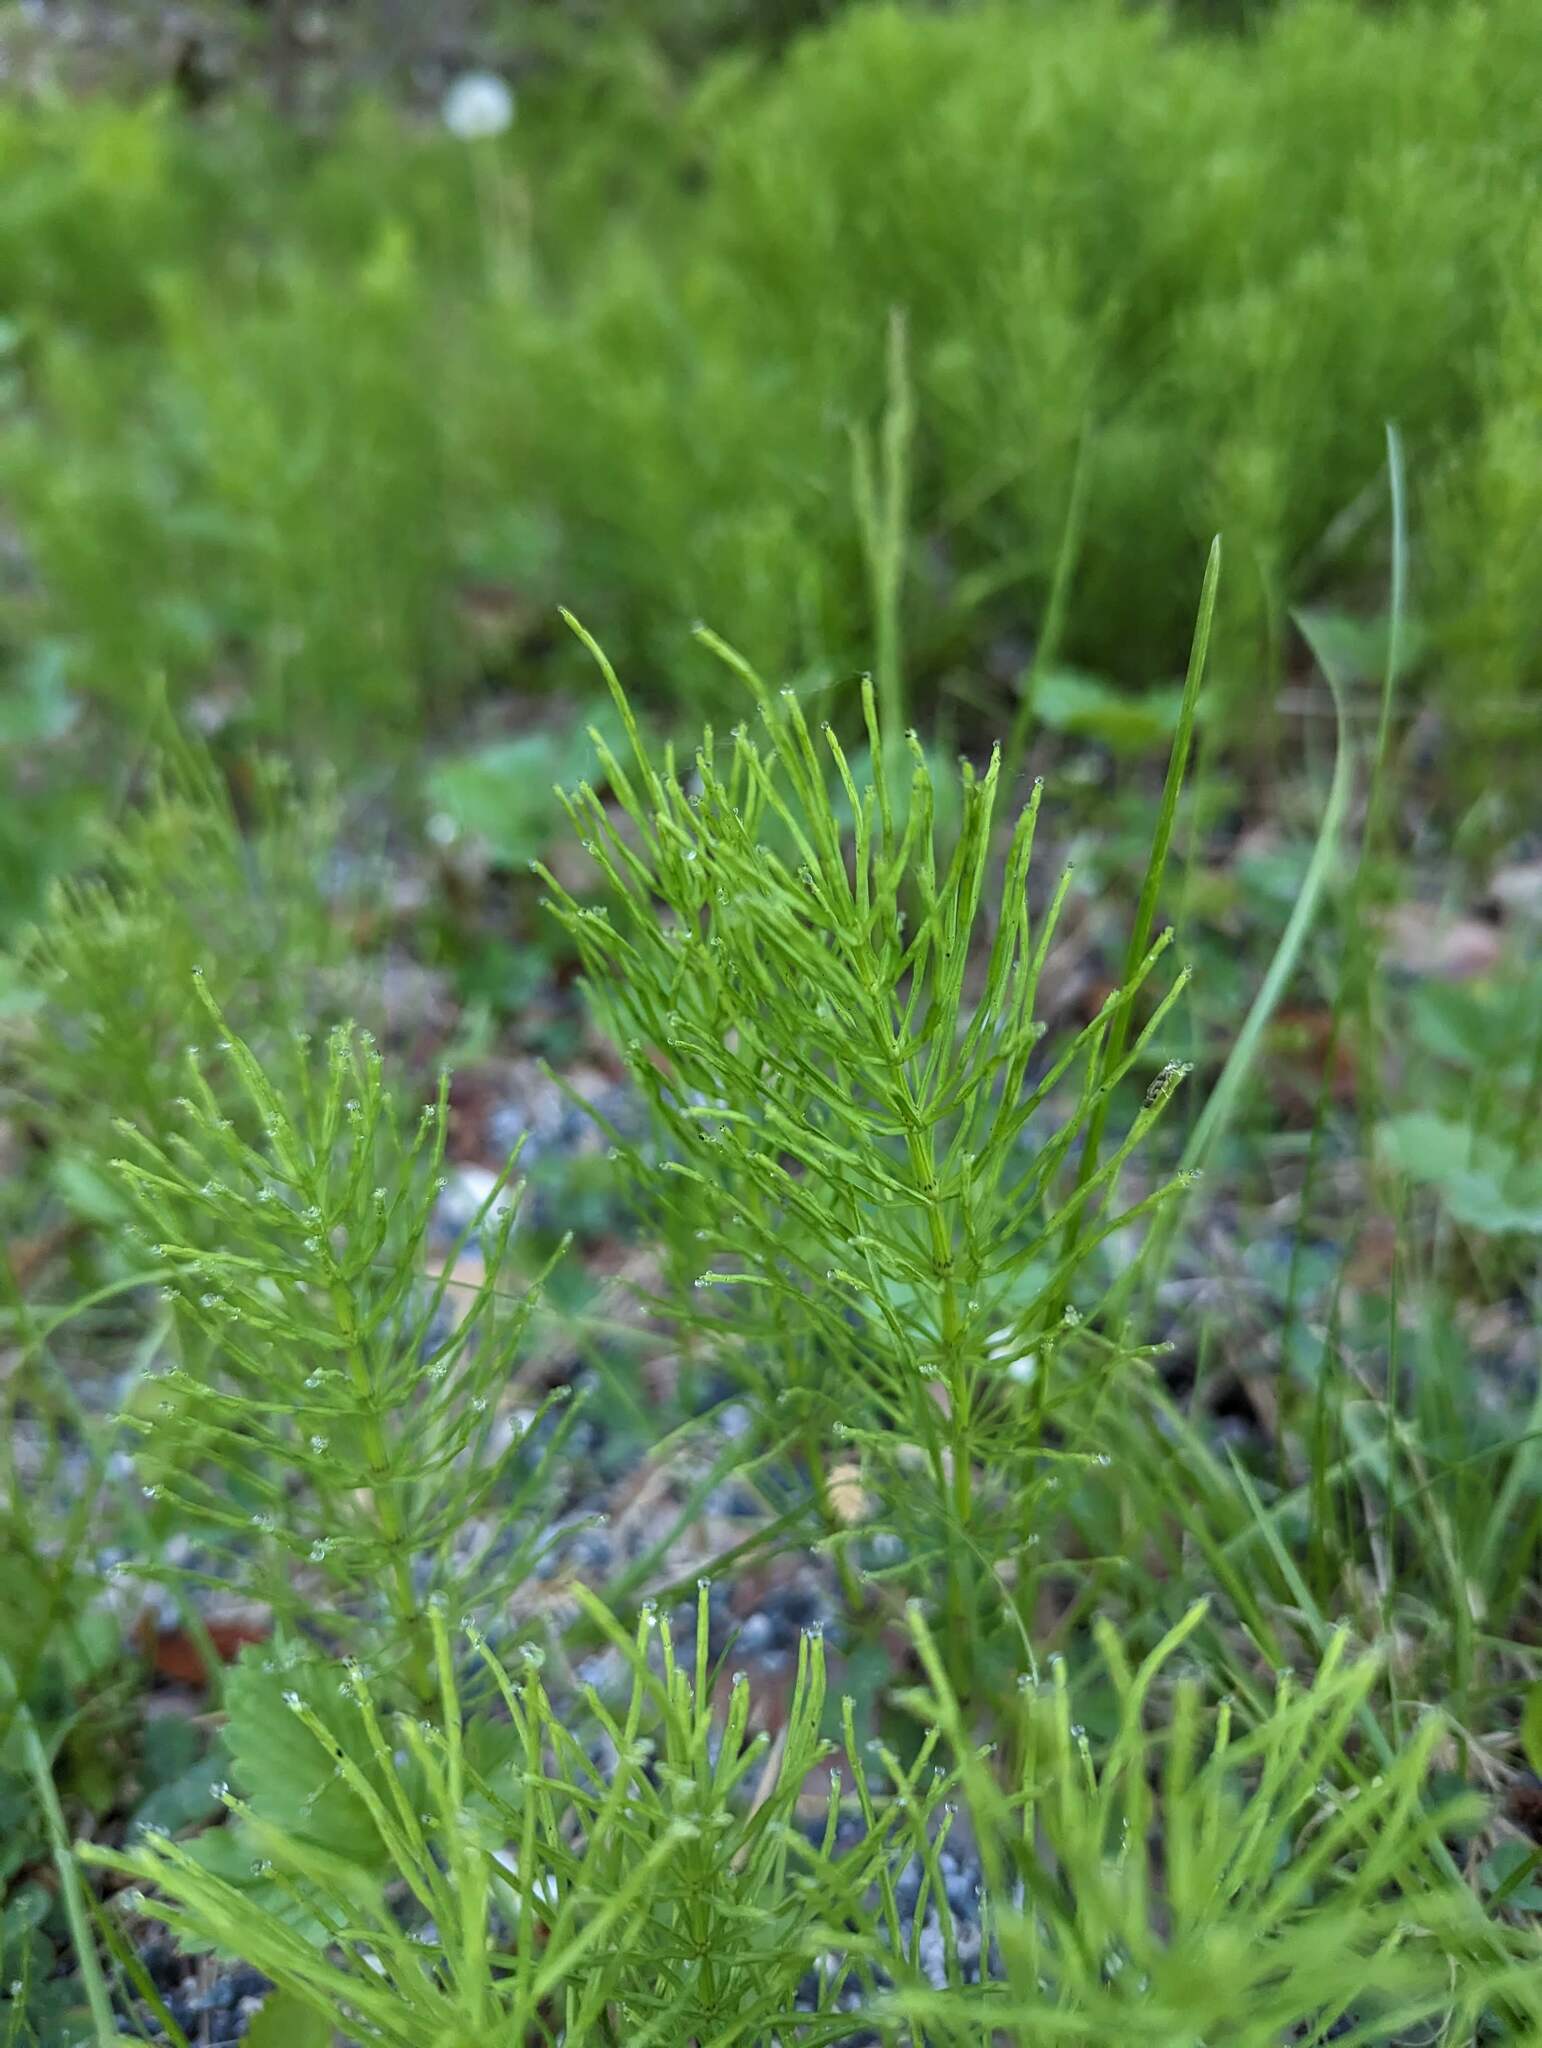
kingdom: Plantae
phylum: Tracheophyta
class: Polypodiopsida
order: Equisetales
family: Equisetaceae
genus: Equisetum
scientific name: Equisetum arvense
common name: Field horsetail
